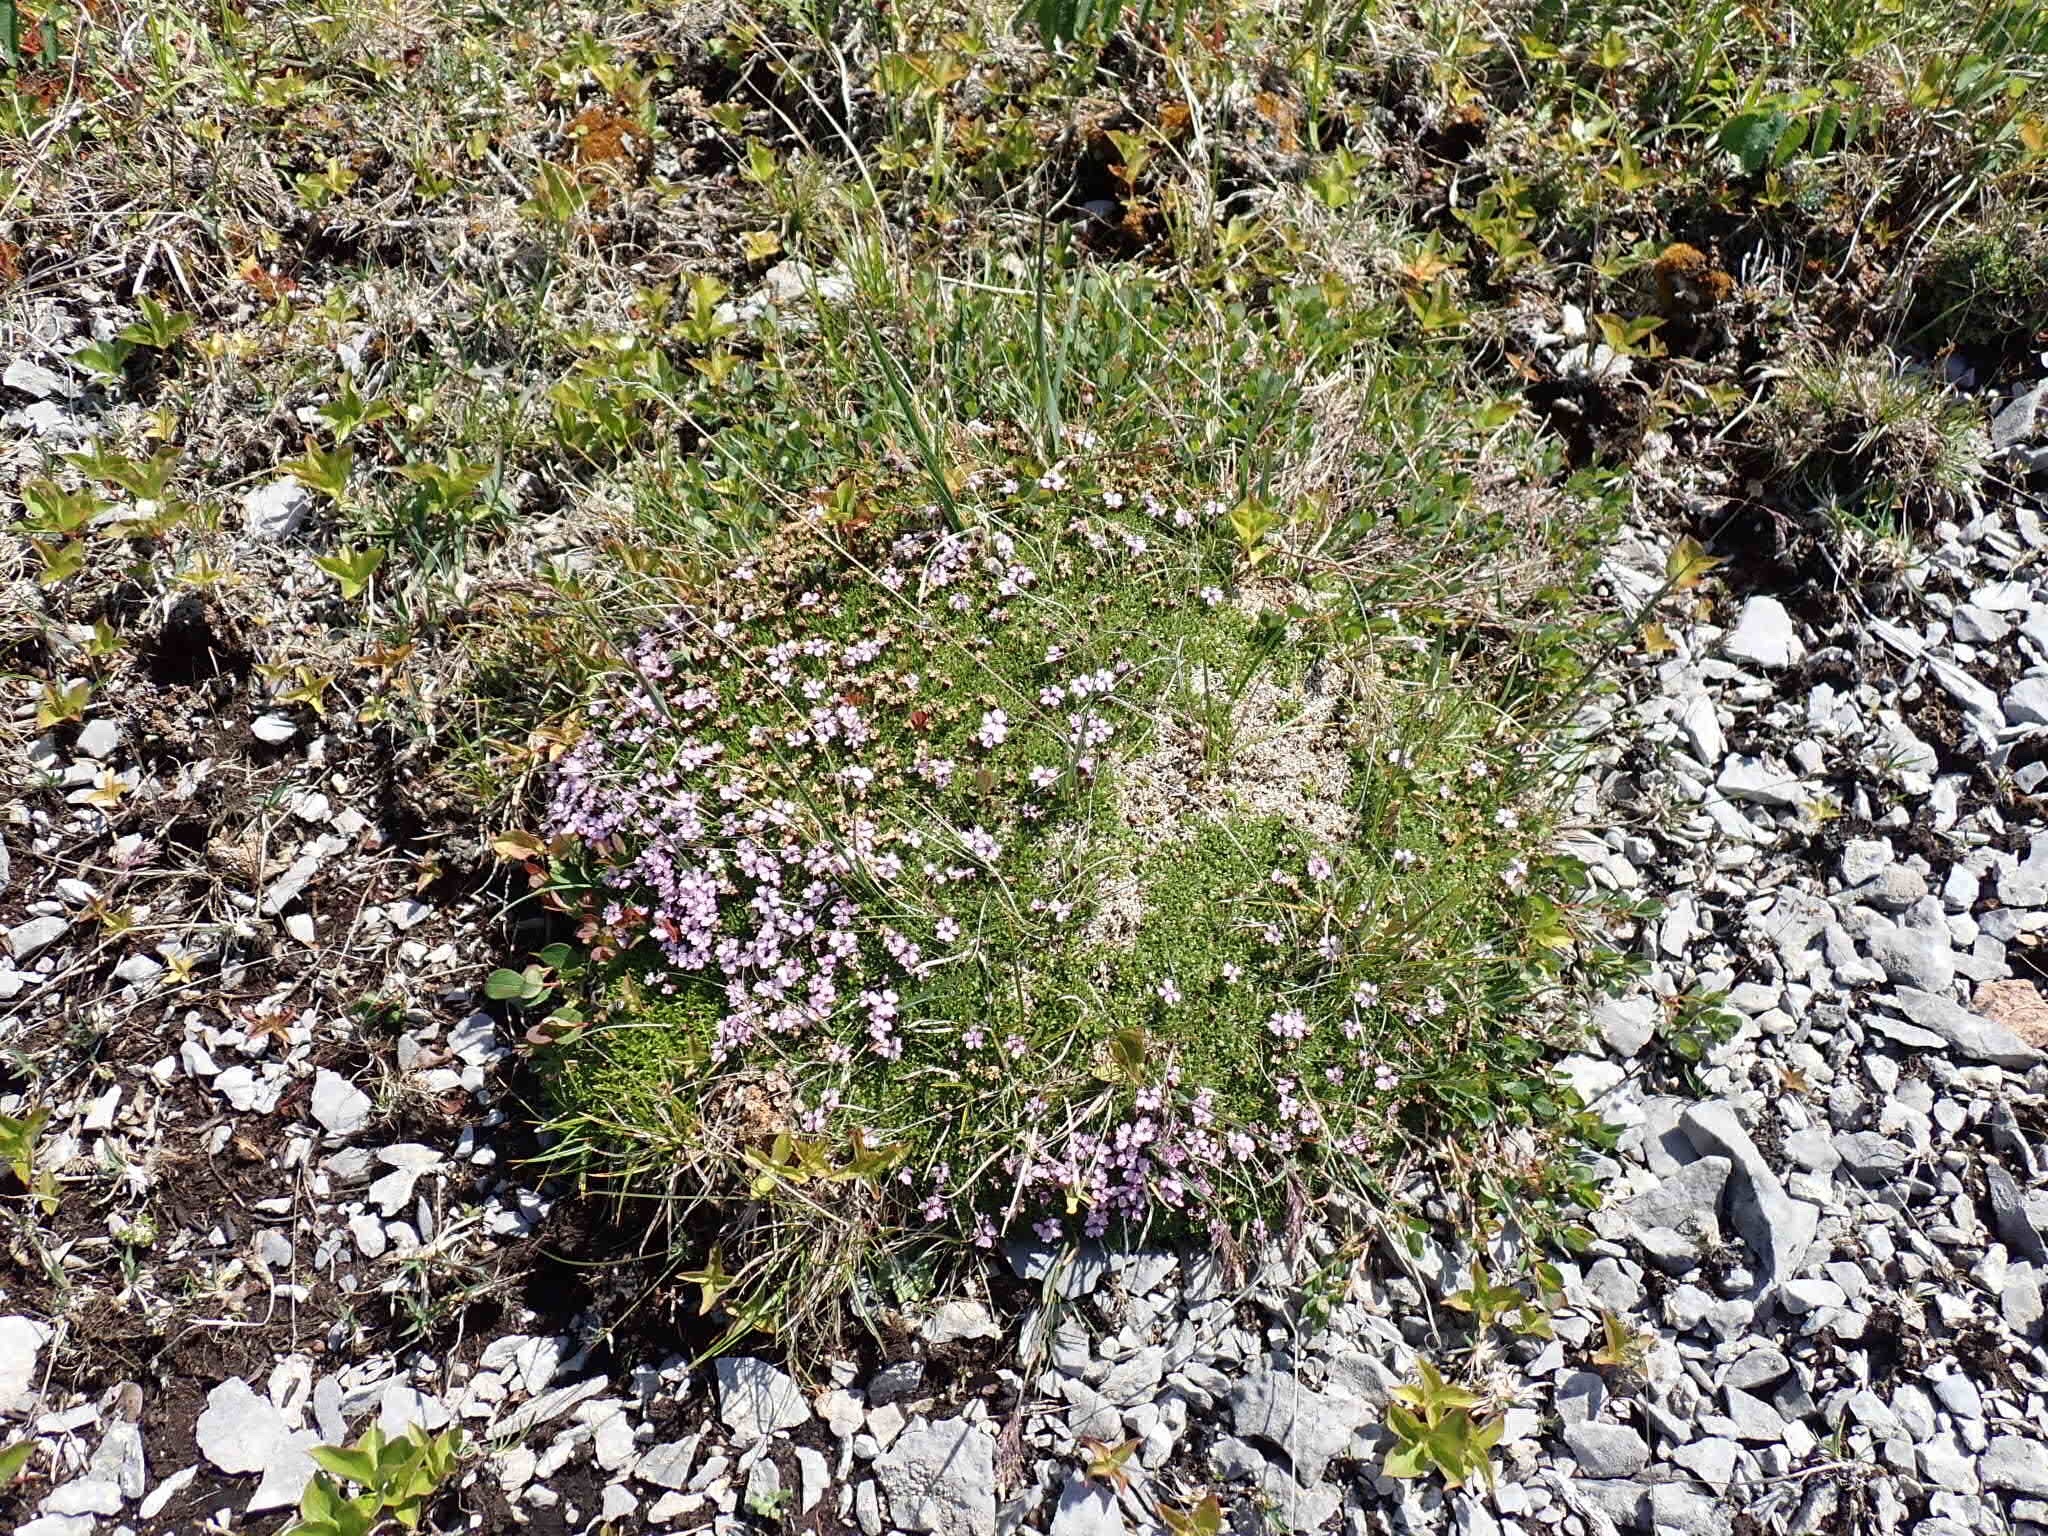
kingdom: Plantae
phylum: Tracheophyta
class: Magnoliopsida
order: Caryophyllales
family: Caryophyllaceae
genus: Silene
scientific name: Silene acaulis
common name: Moss campion
